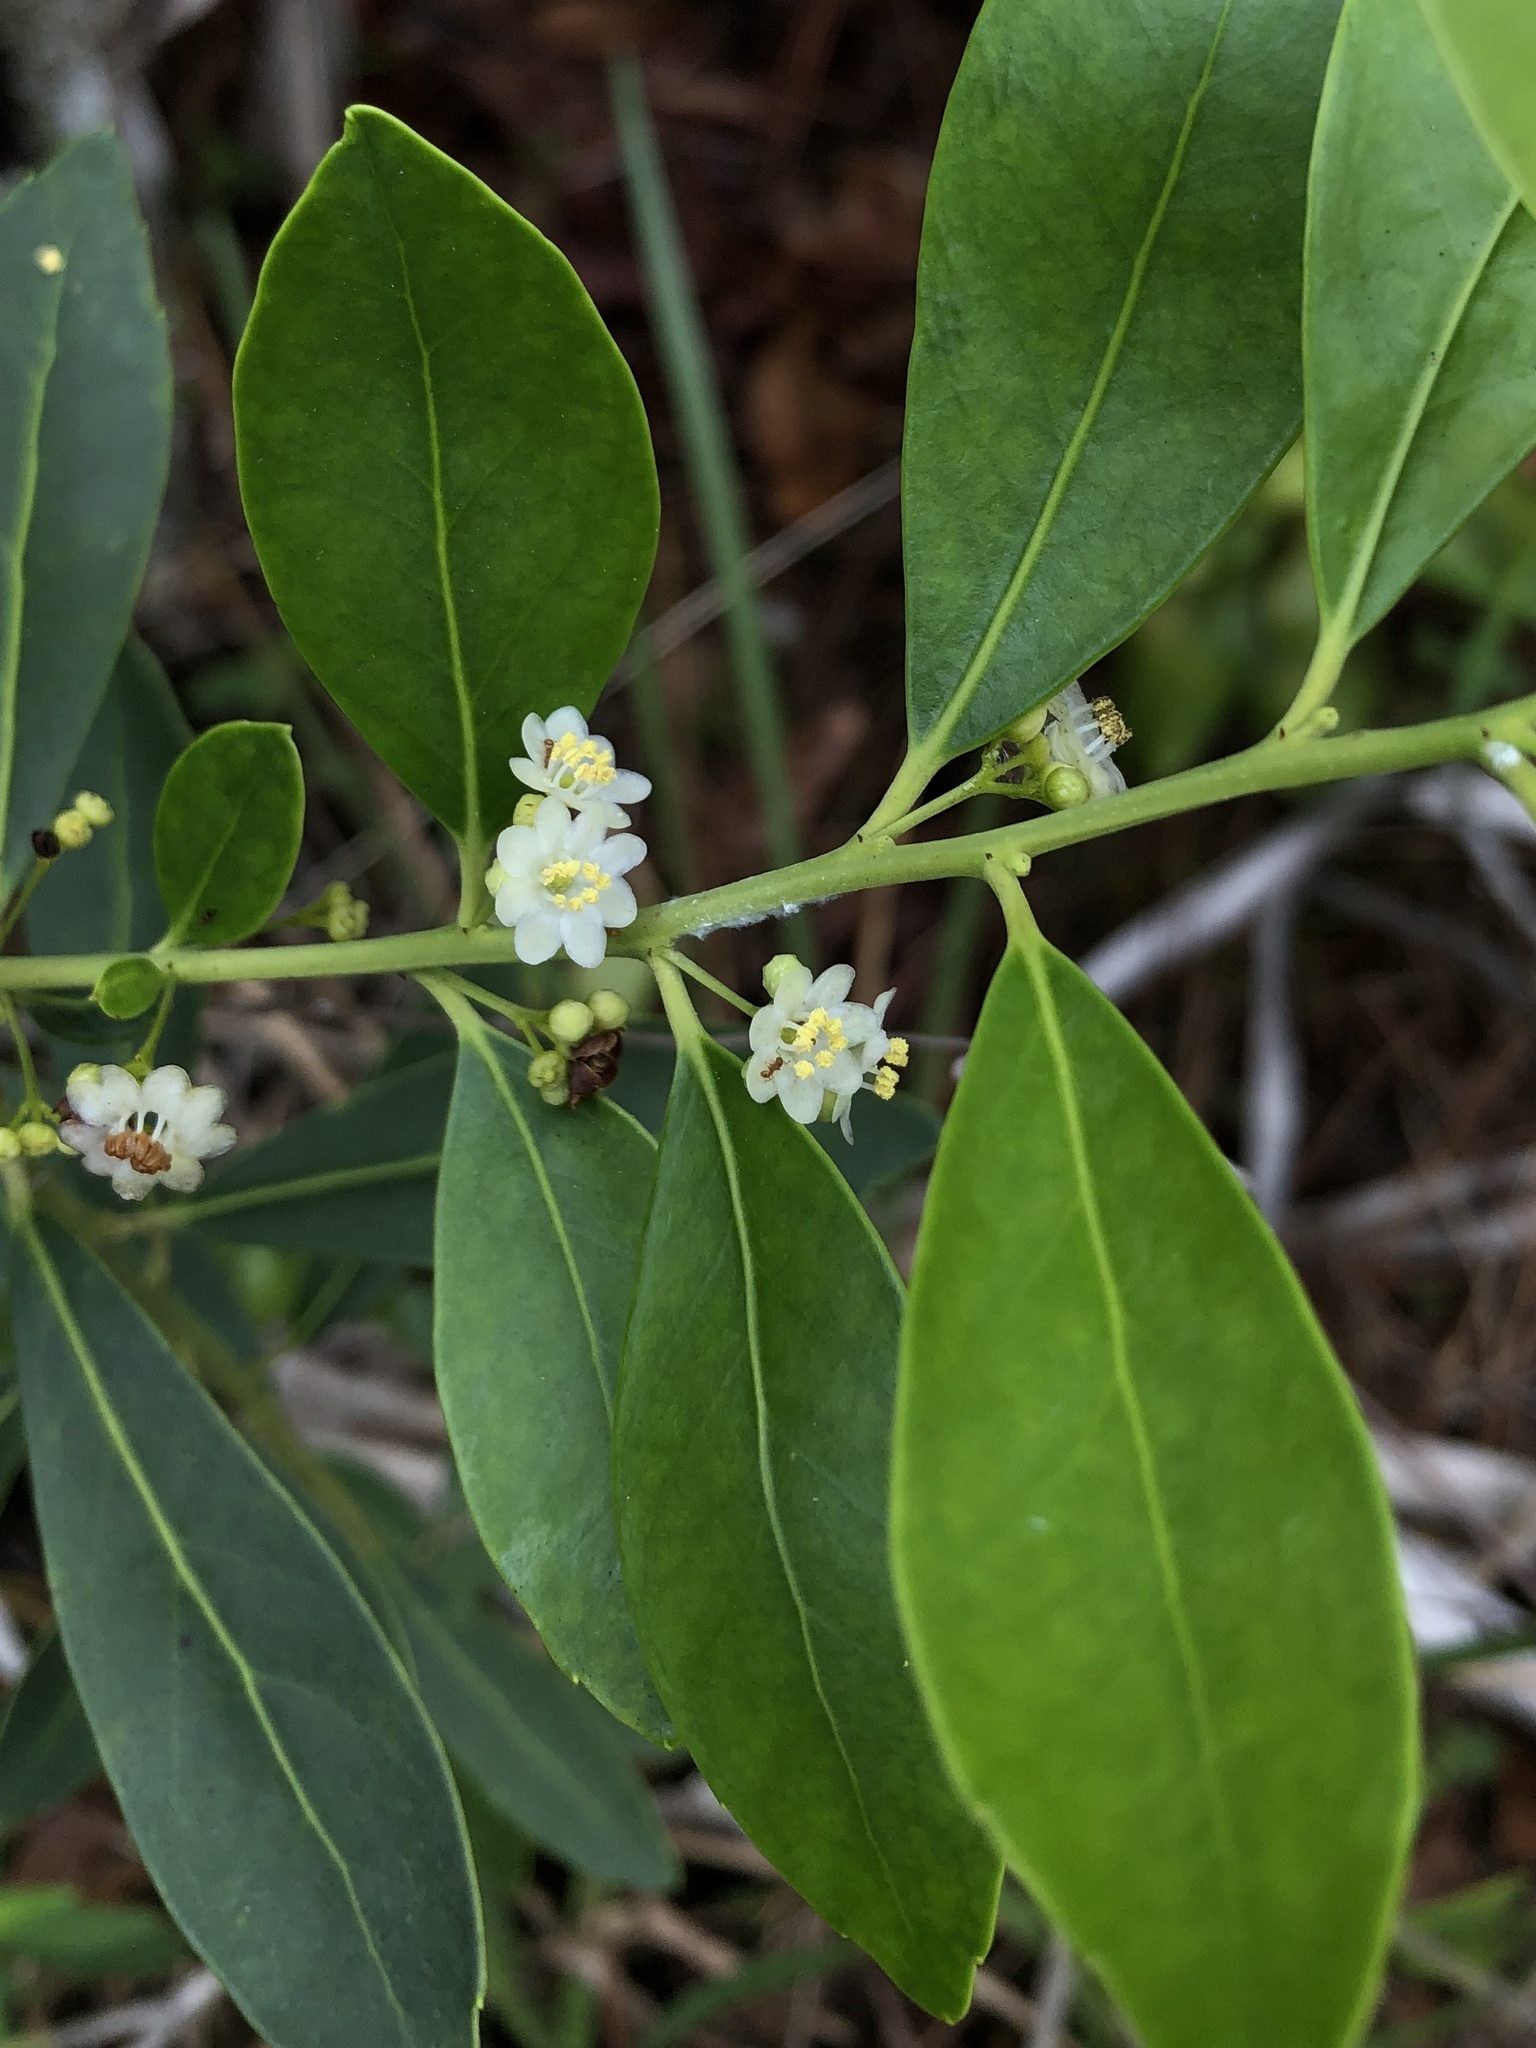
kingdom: Plantae
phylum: Tracheophyta
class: Magnoliopsida
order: Aquifoliales
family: Aquifoliaceae
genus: Ilex
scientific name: Ilex glabra
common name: Bitter gallberry
